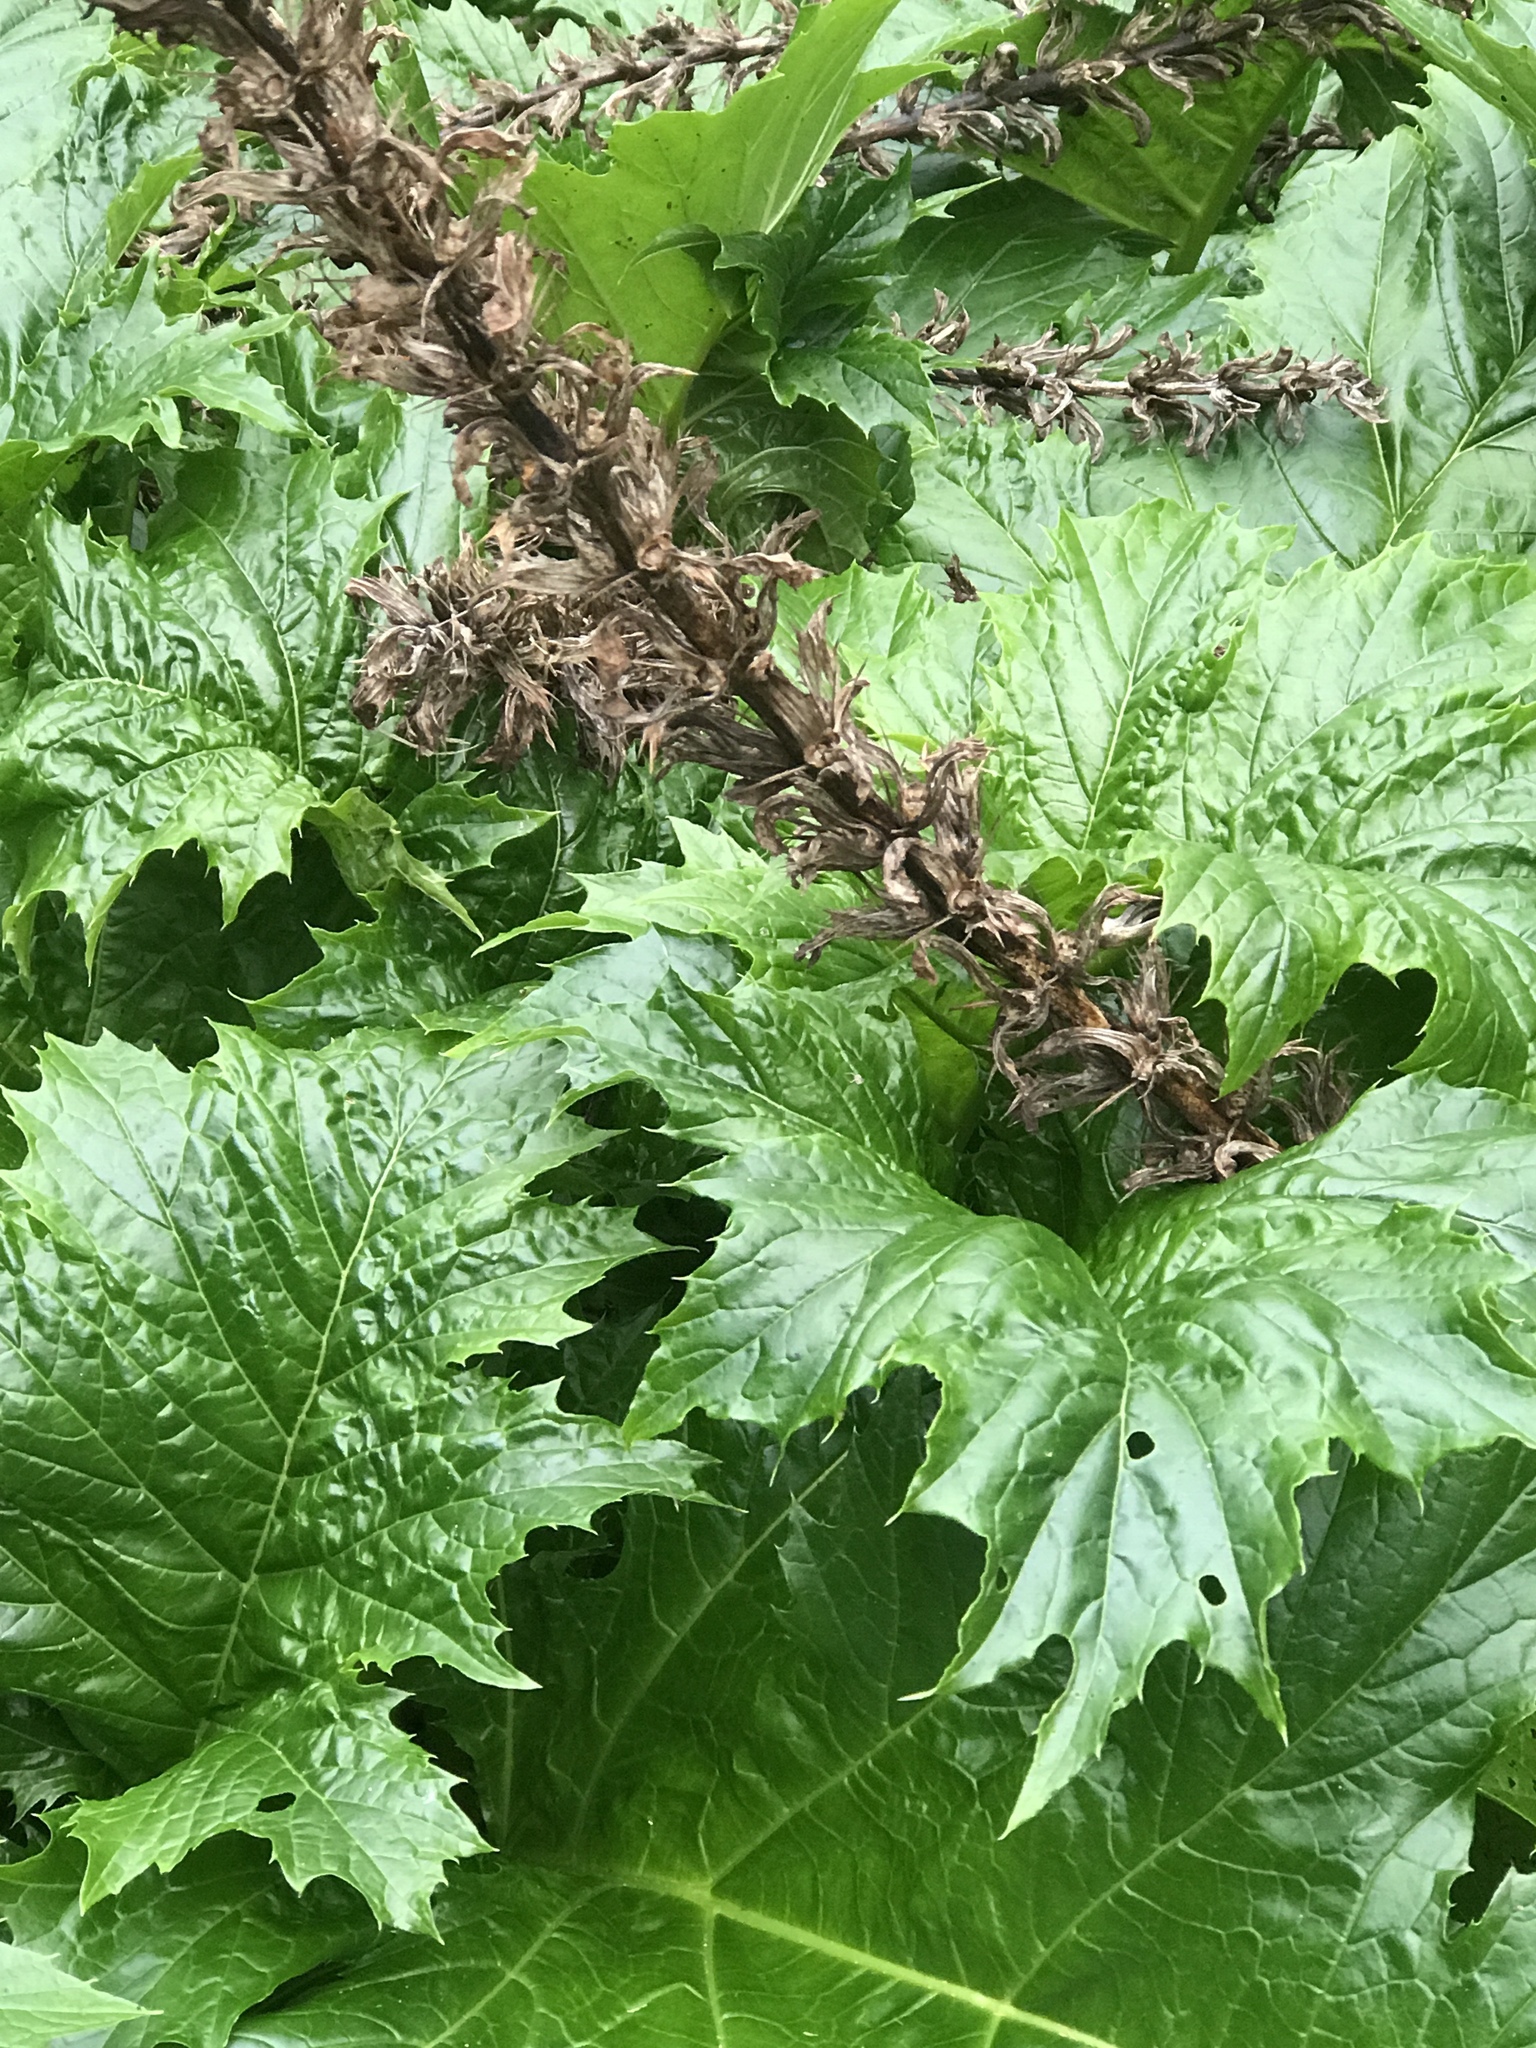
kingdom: Plantae
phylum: Tracheophyta
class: Magnoliopsida
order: Lamiales
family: Acanthaceae
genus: Acanthus
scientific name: Acanthus mollis
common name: Bear's-breech
